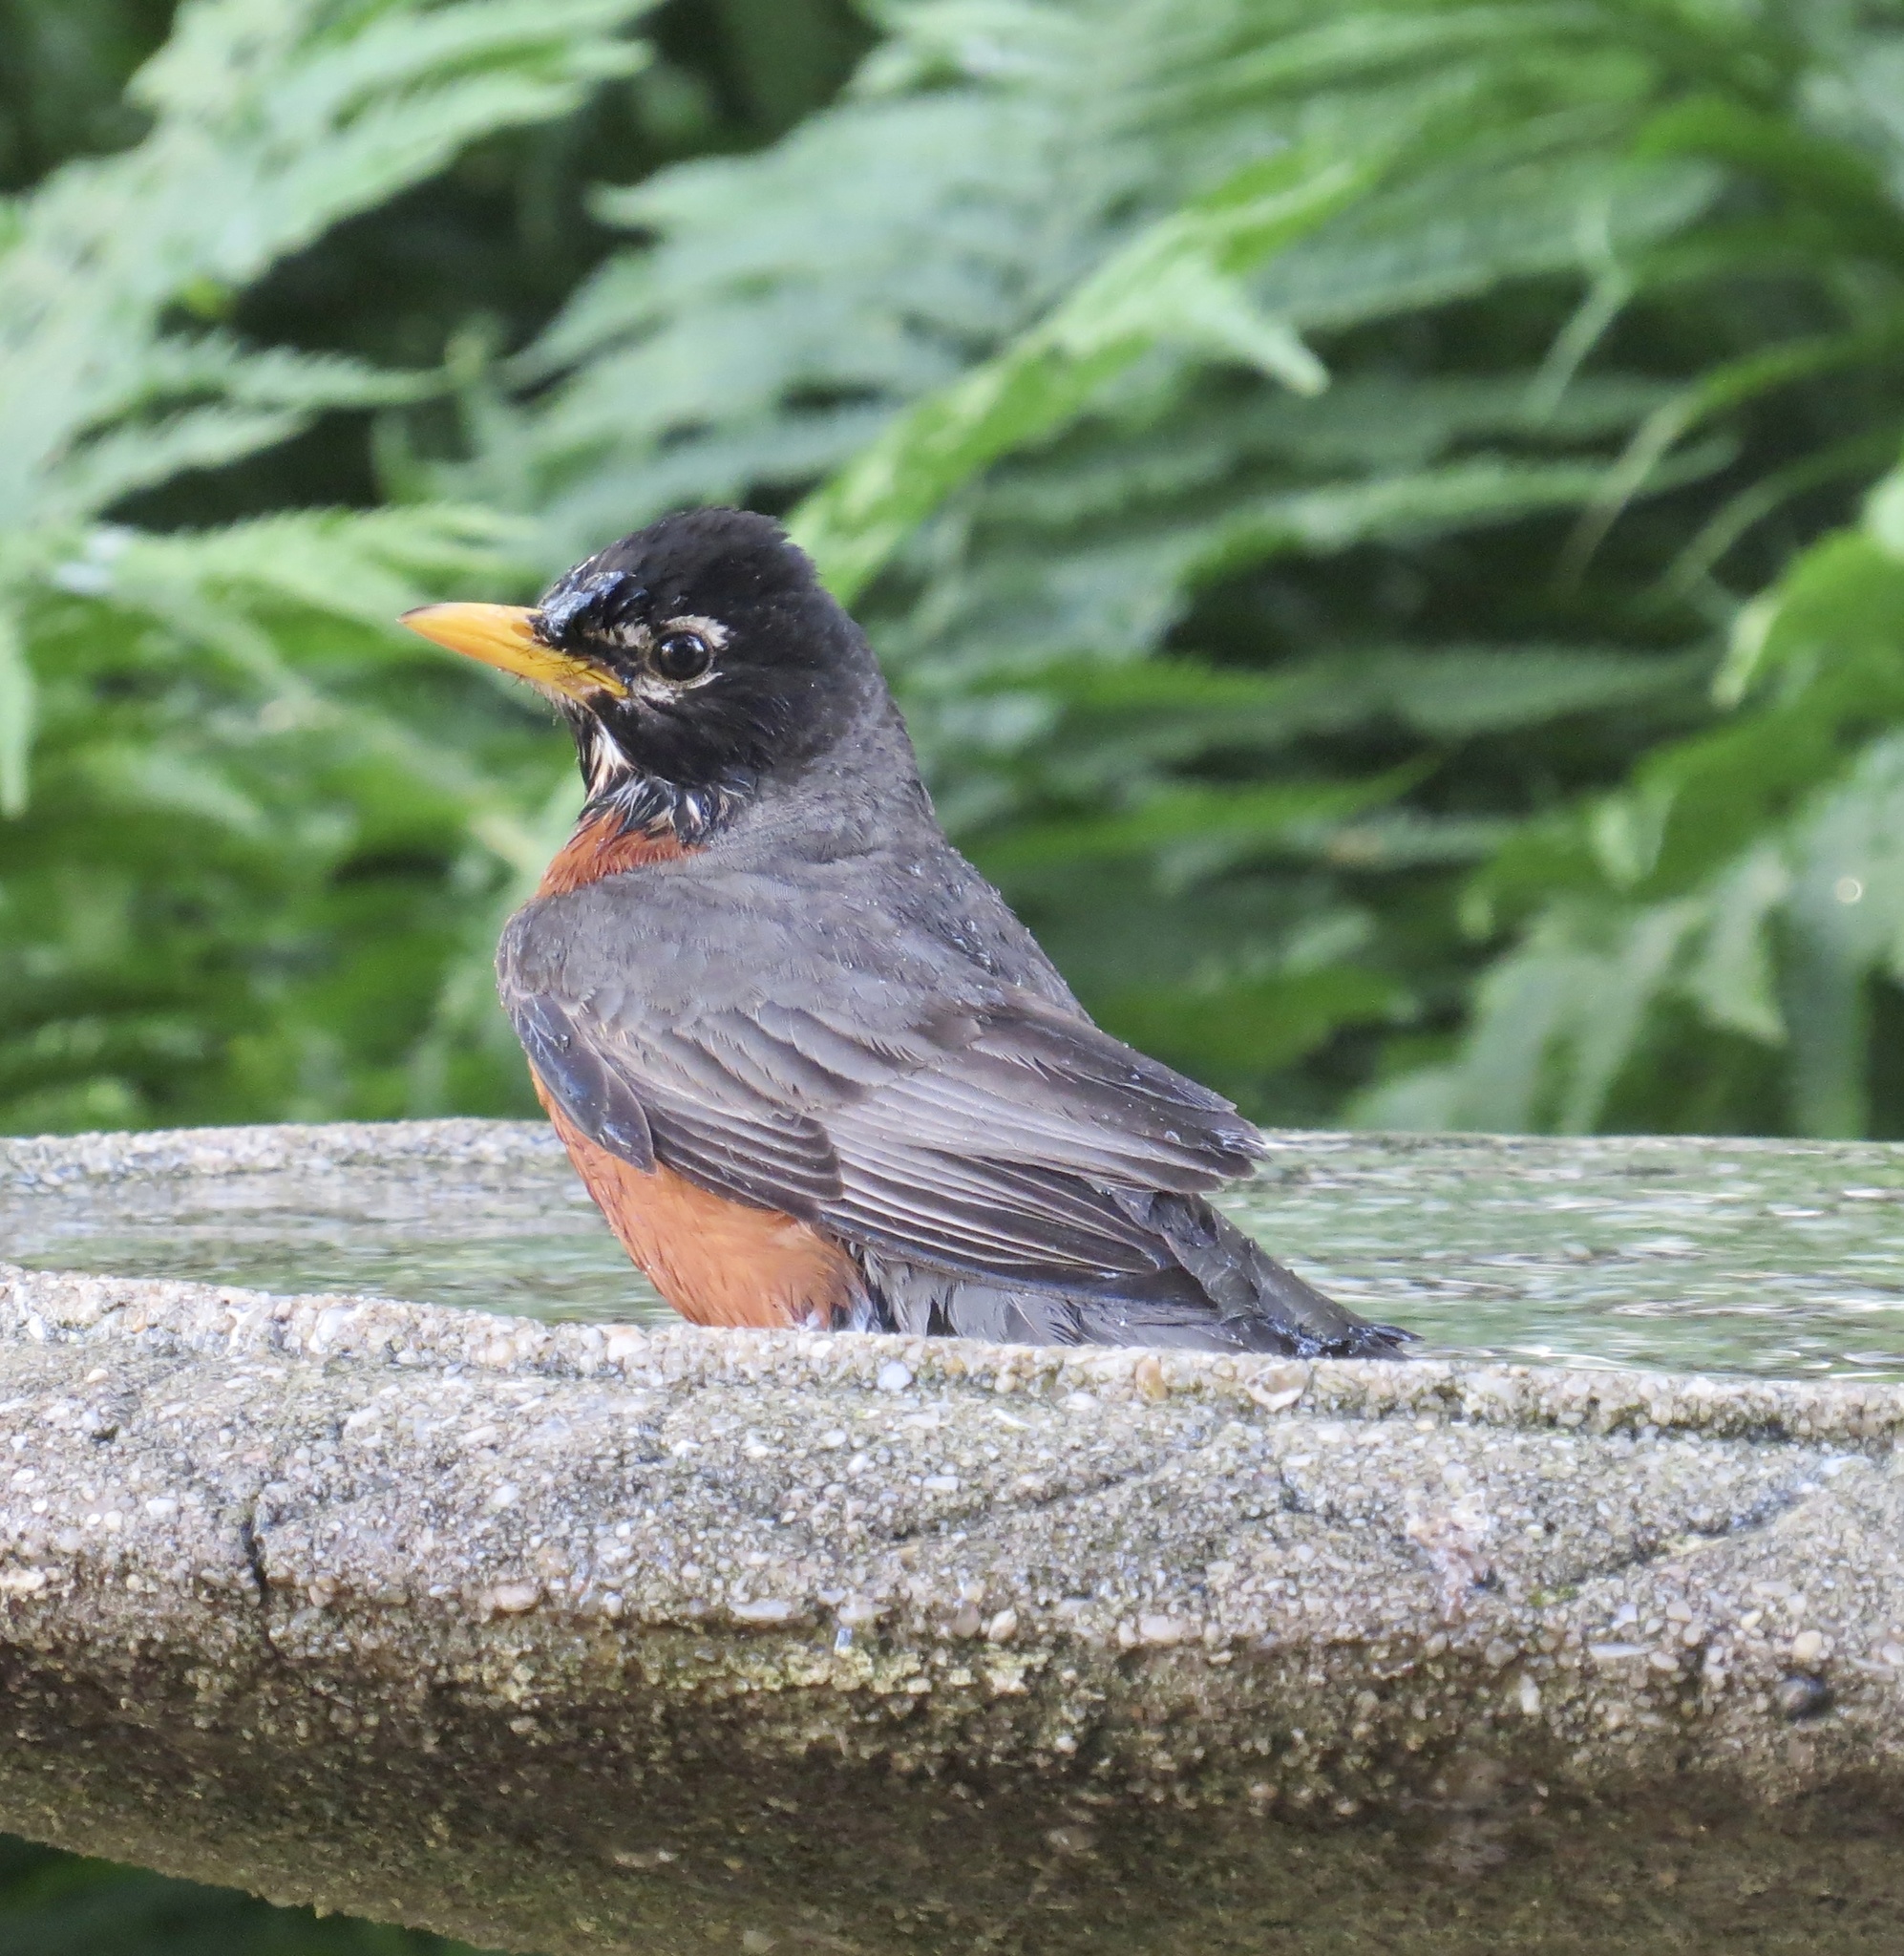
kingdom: Animalia
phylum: Chordata
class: Aves
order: Passeriformes
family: Turdidae
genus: Turdus
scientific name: Turdus migratorius
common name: American robin
